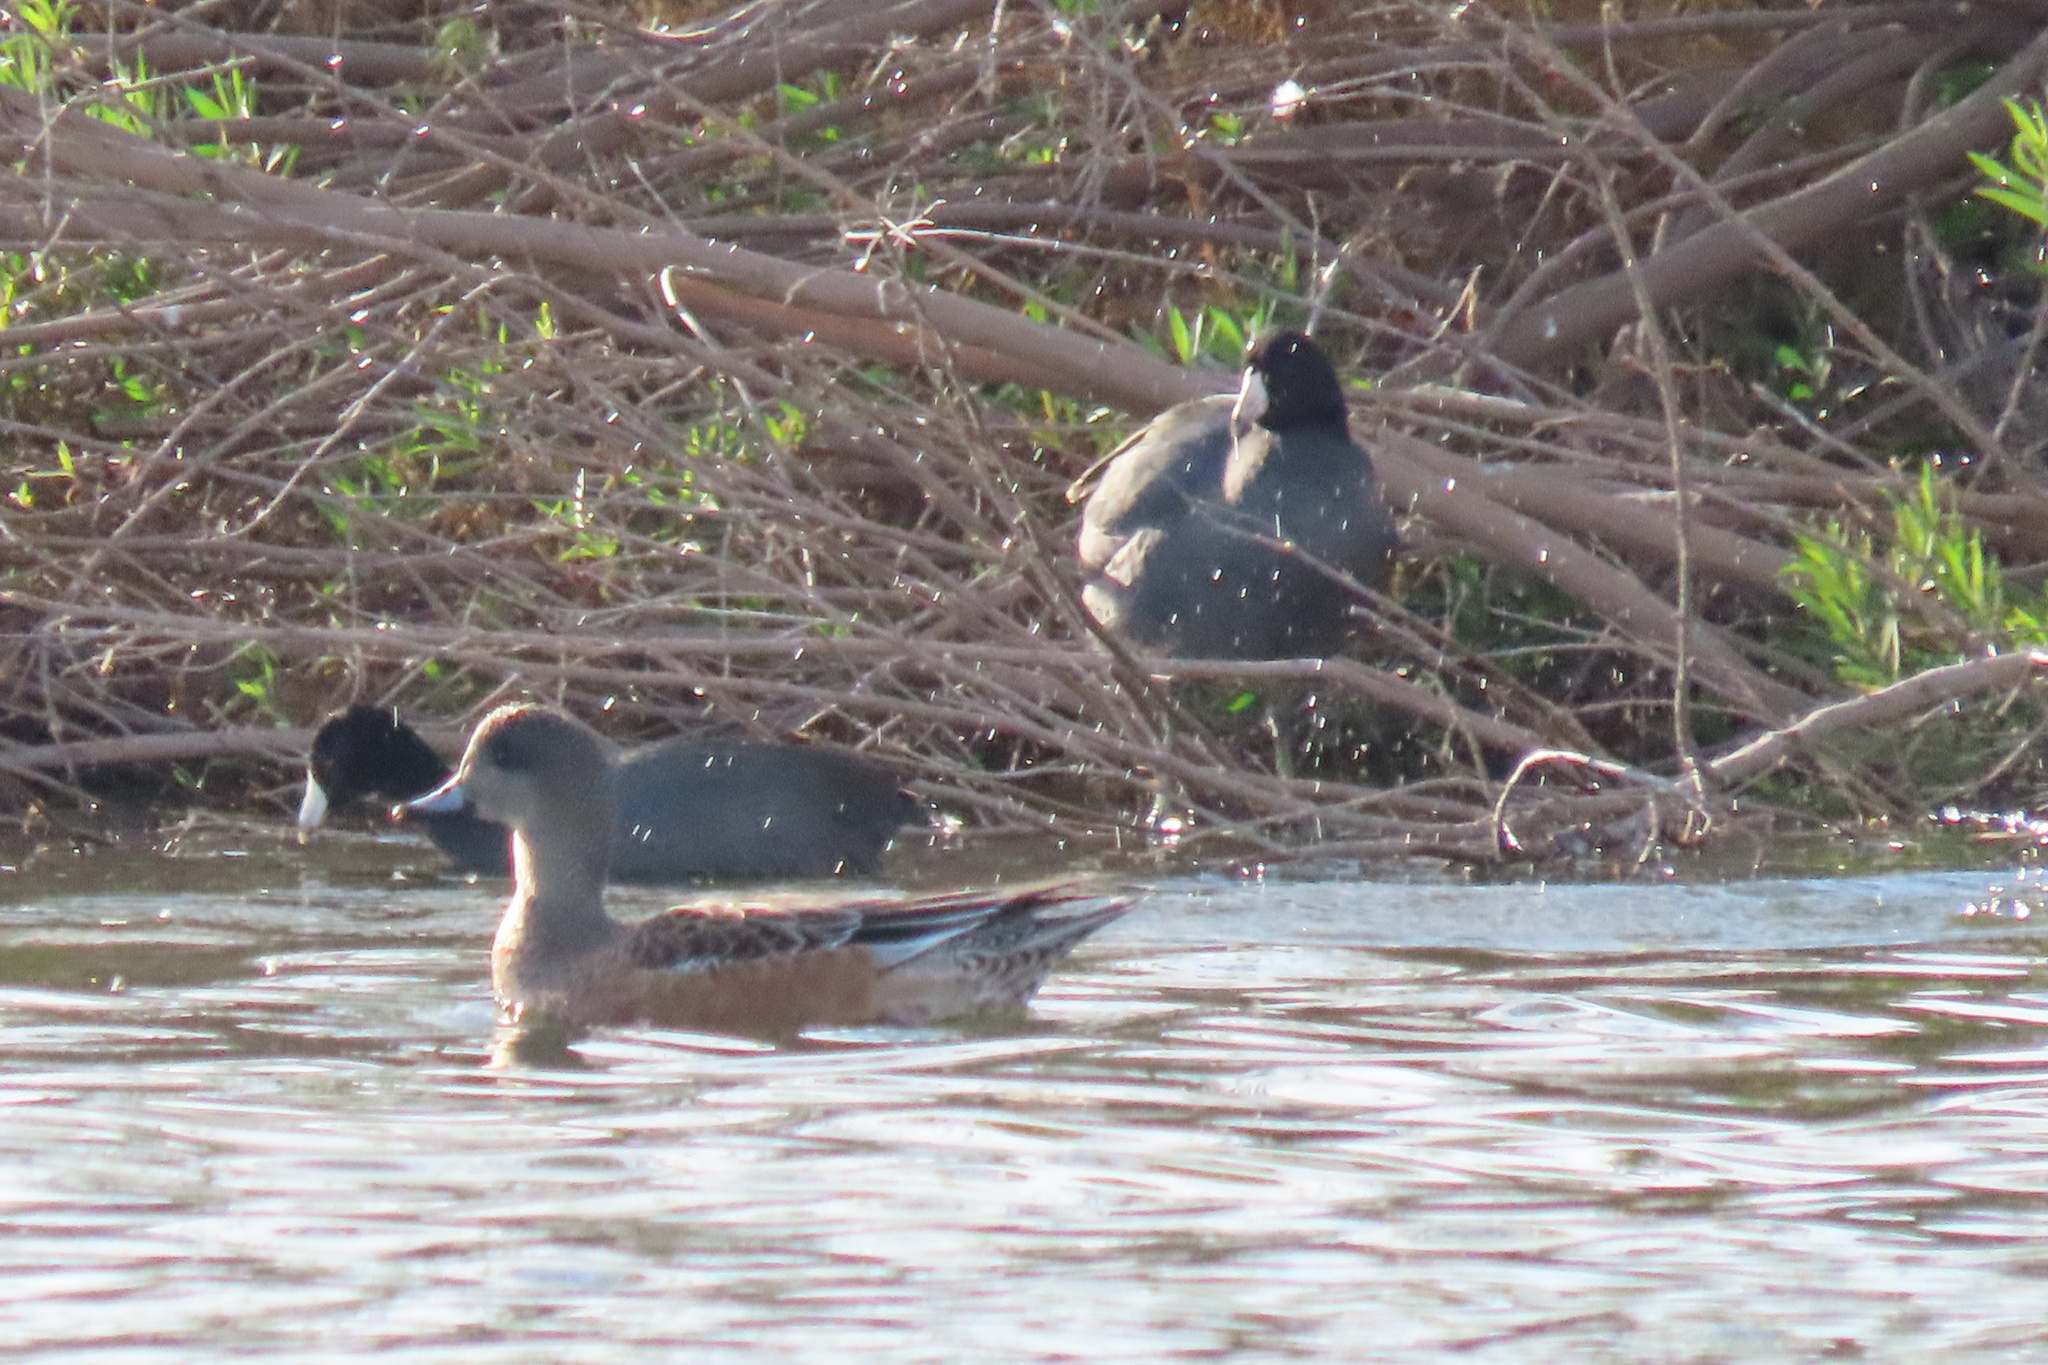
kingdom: Animalia
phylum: Chordata
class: Aves
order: Anseriformes
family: Anatidae
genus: Mareca
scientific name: Mareca americana
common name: American wigeon
